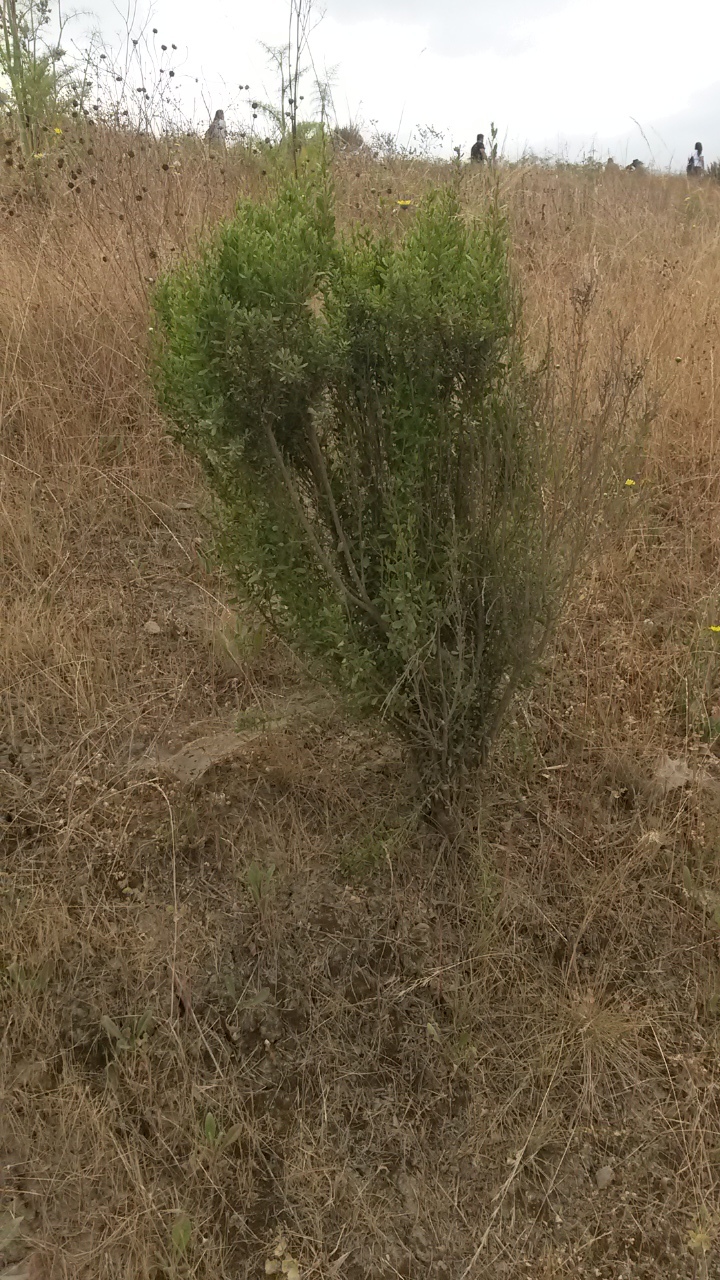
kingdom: Plantae
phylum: Tracheophyta
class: Magnoliopsida
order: Asterales
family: Asteraceae
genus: Baccharis
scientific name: Baccharis pilularis
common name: Coyotebrush
